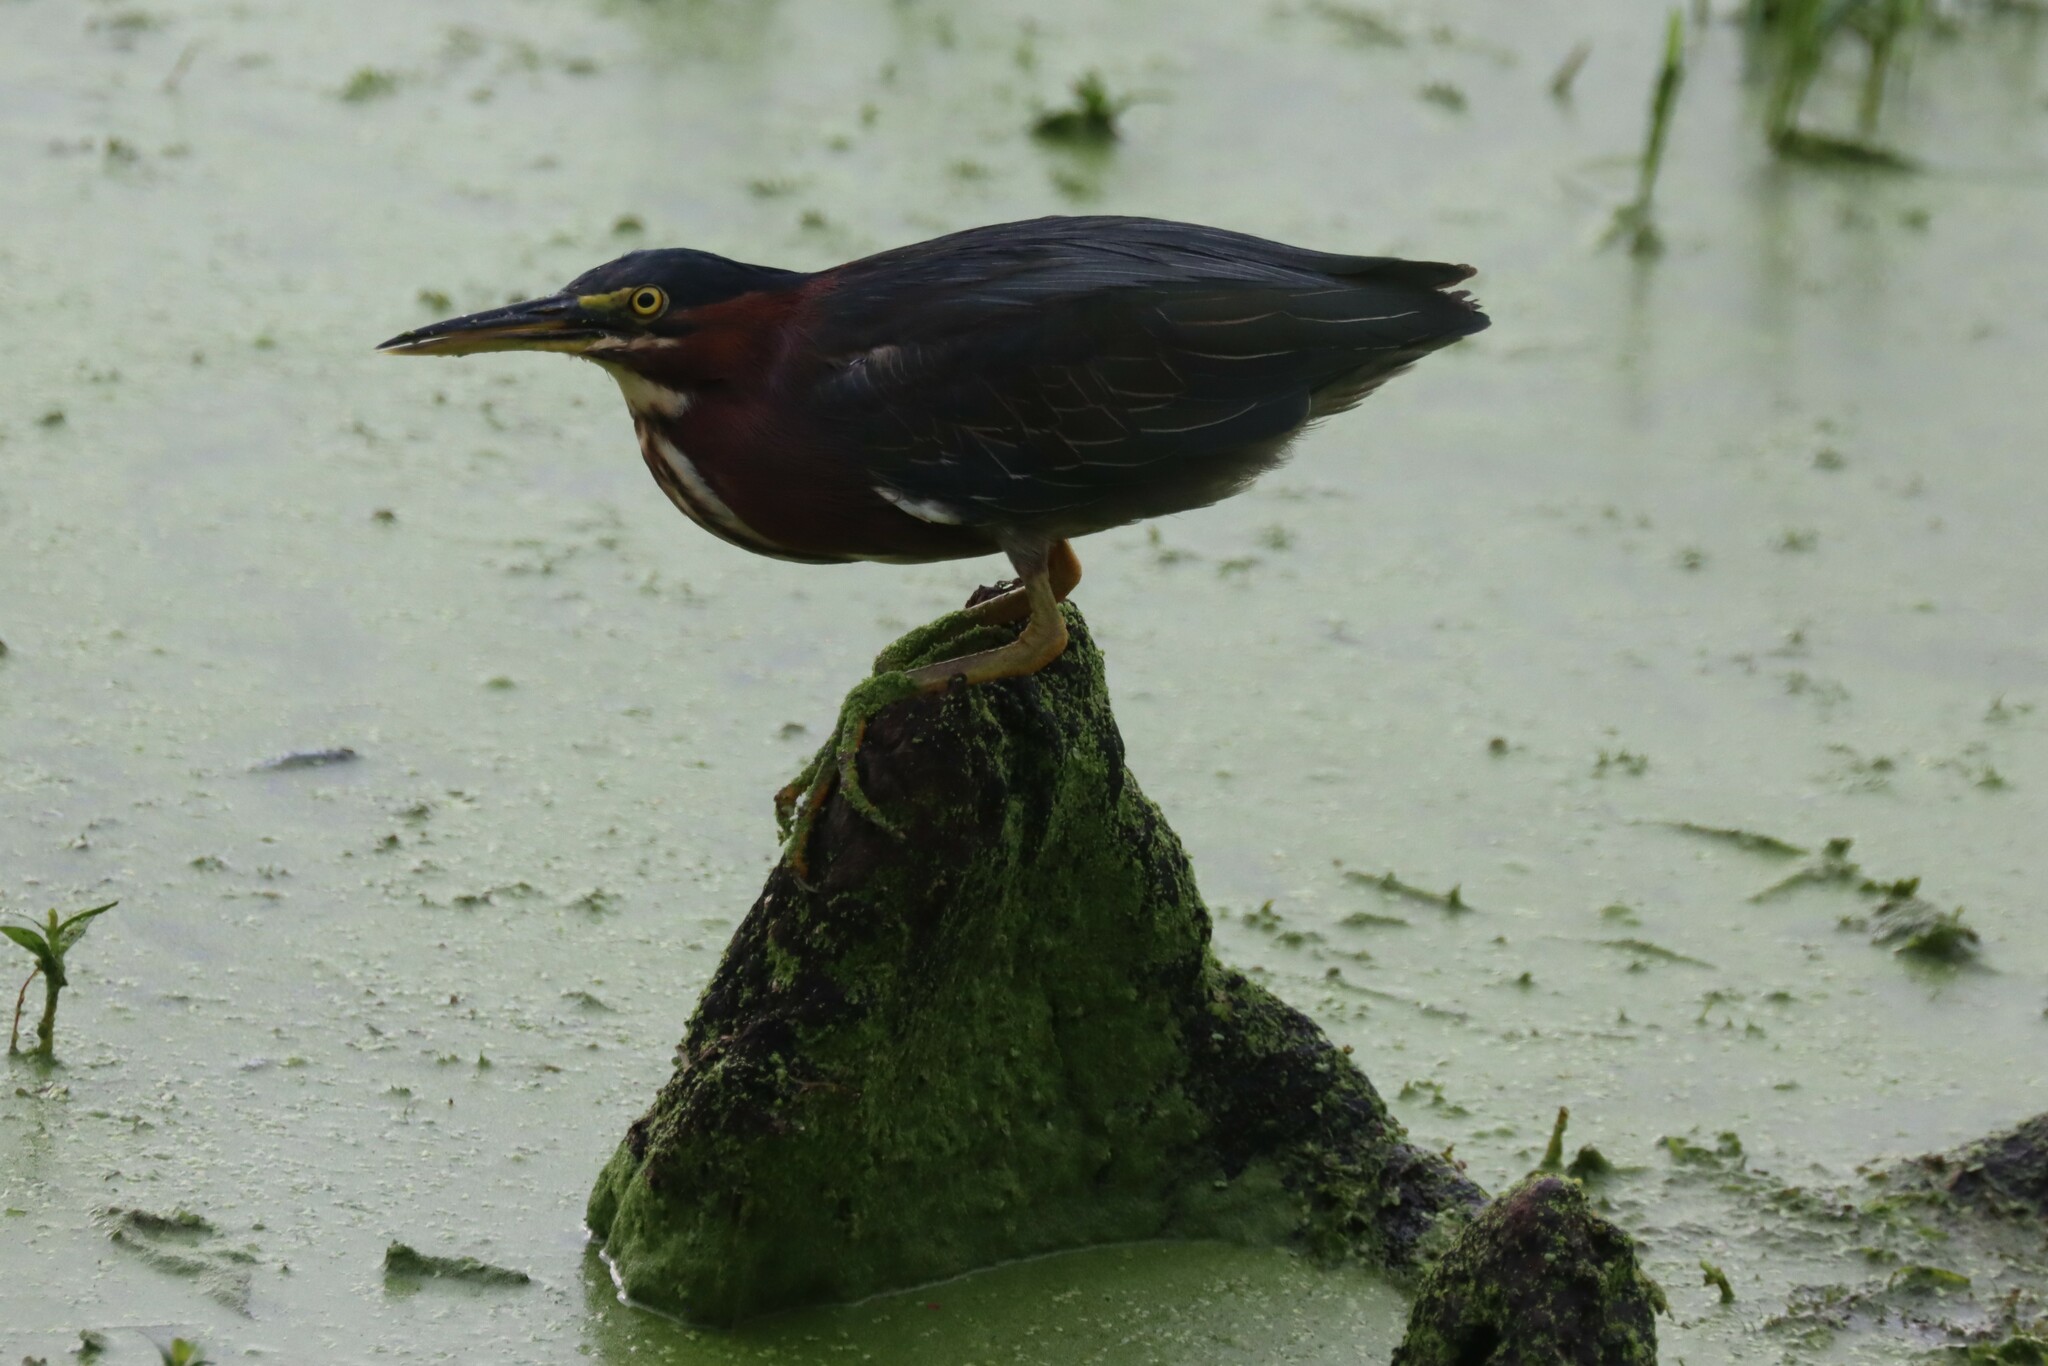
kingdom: Animalia
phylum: Chordata
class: Aves
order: Pelecaniformes
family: Ardeidae
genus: Butorides
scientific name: Butorides virescens
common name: Green heron
